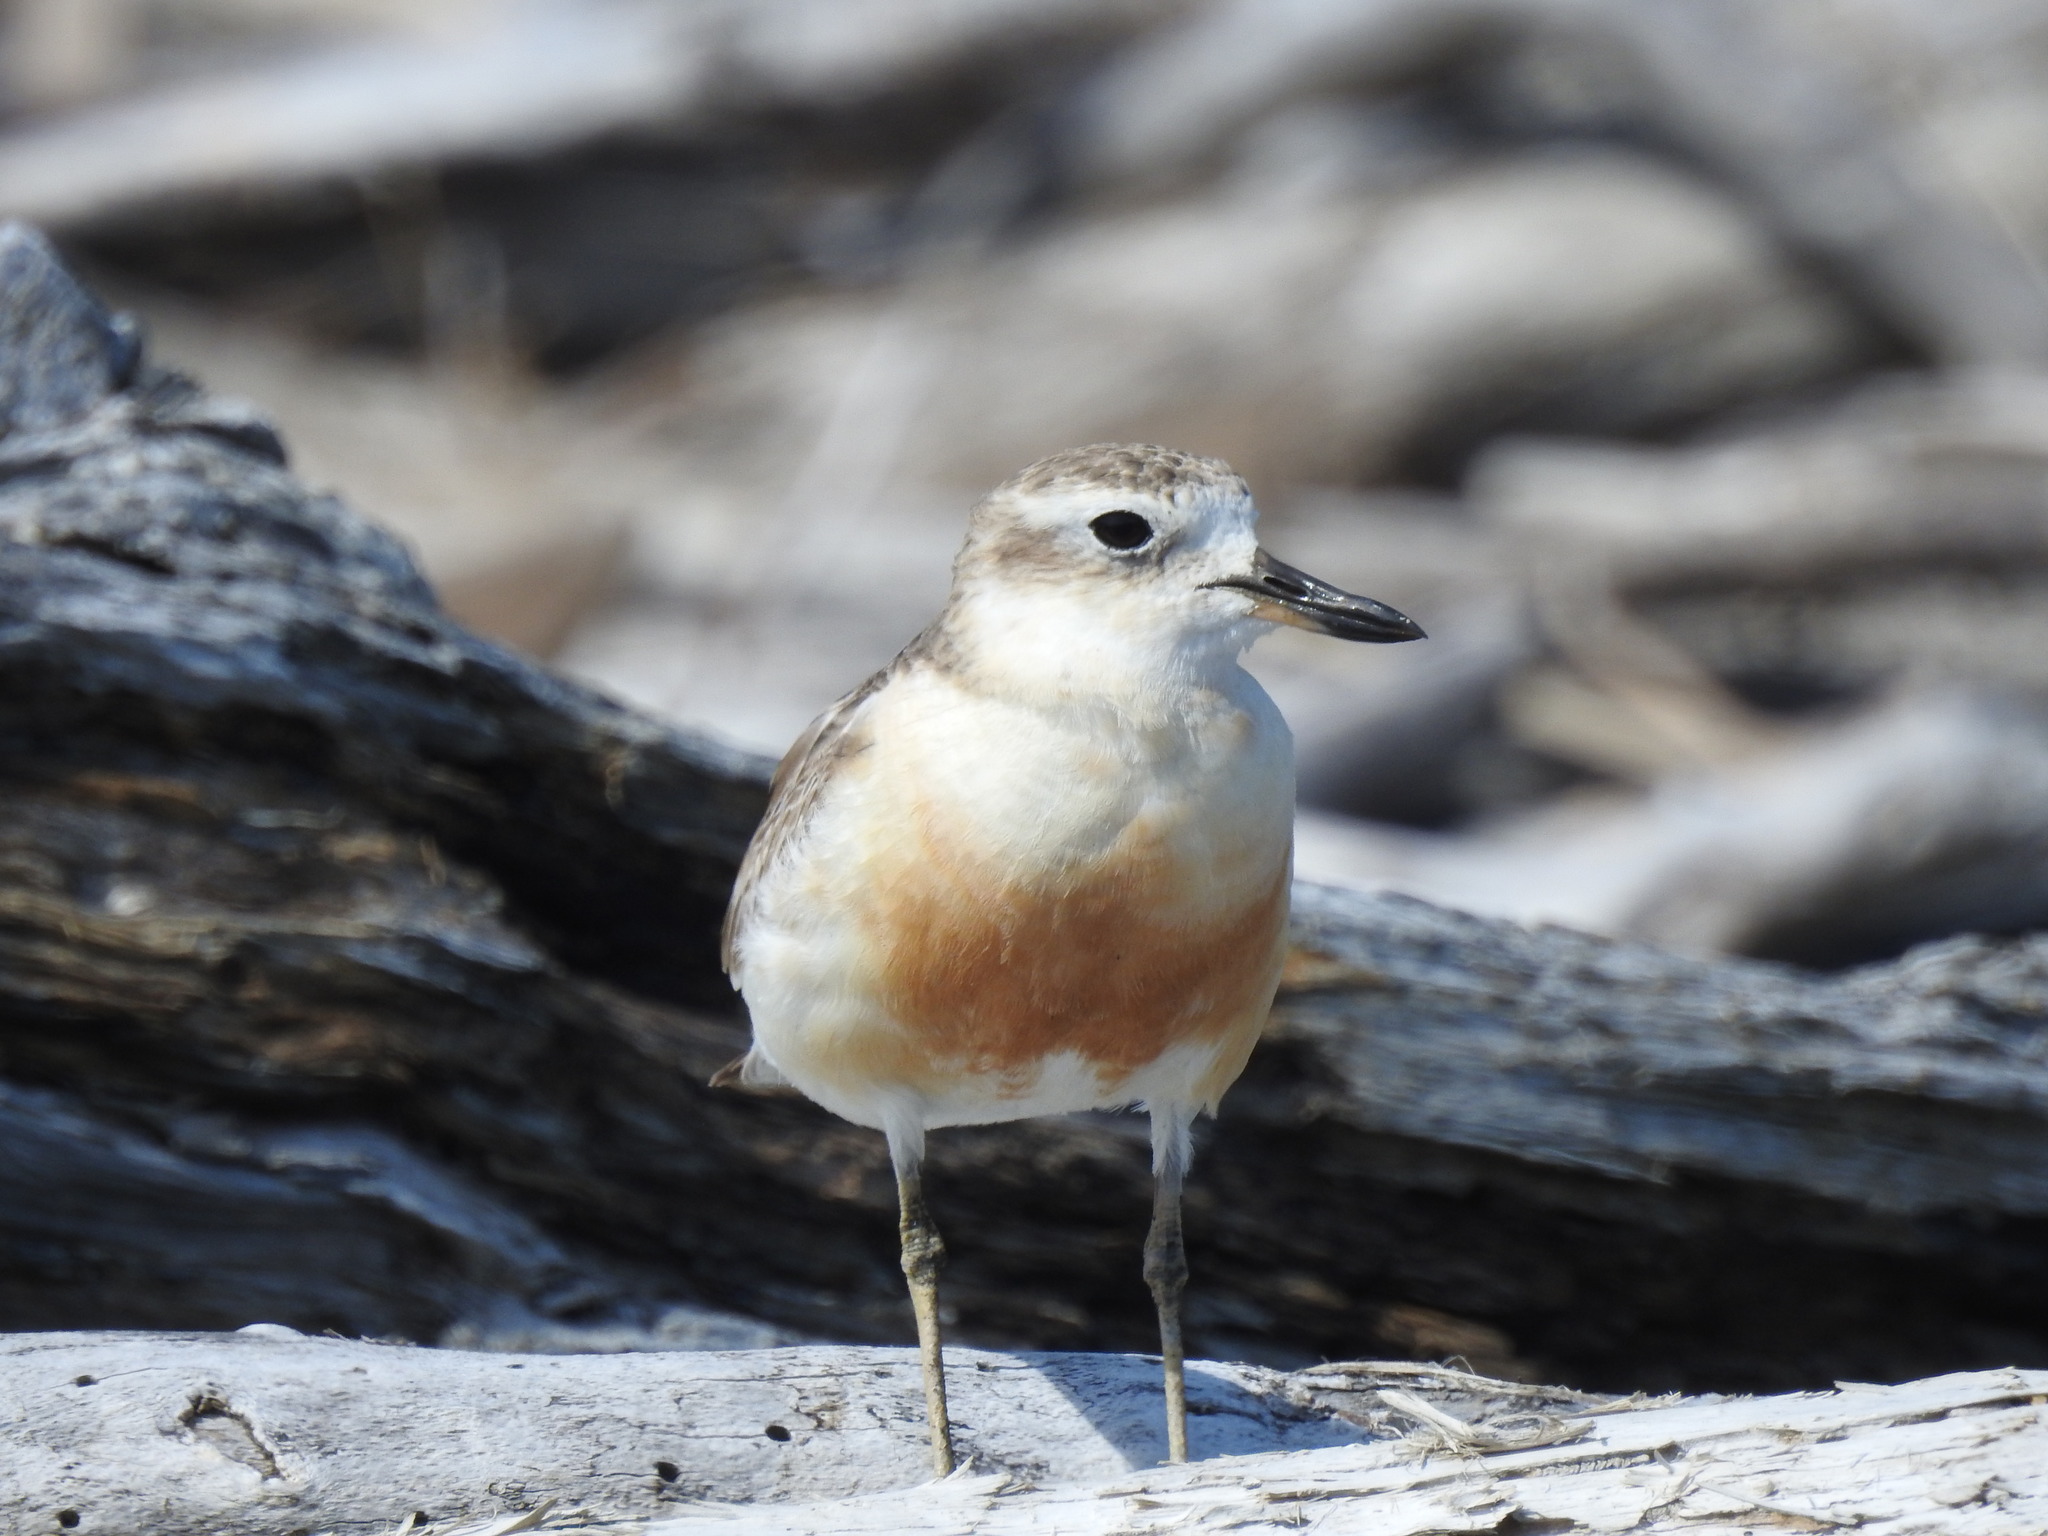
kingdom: Animalia
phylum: Chordata
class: Aves
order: Charadriiformes
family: Charadriidae
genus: Anarhynchus
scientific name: Anarhynchus
